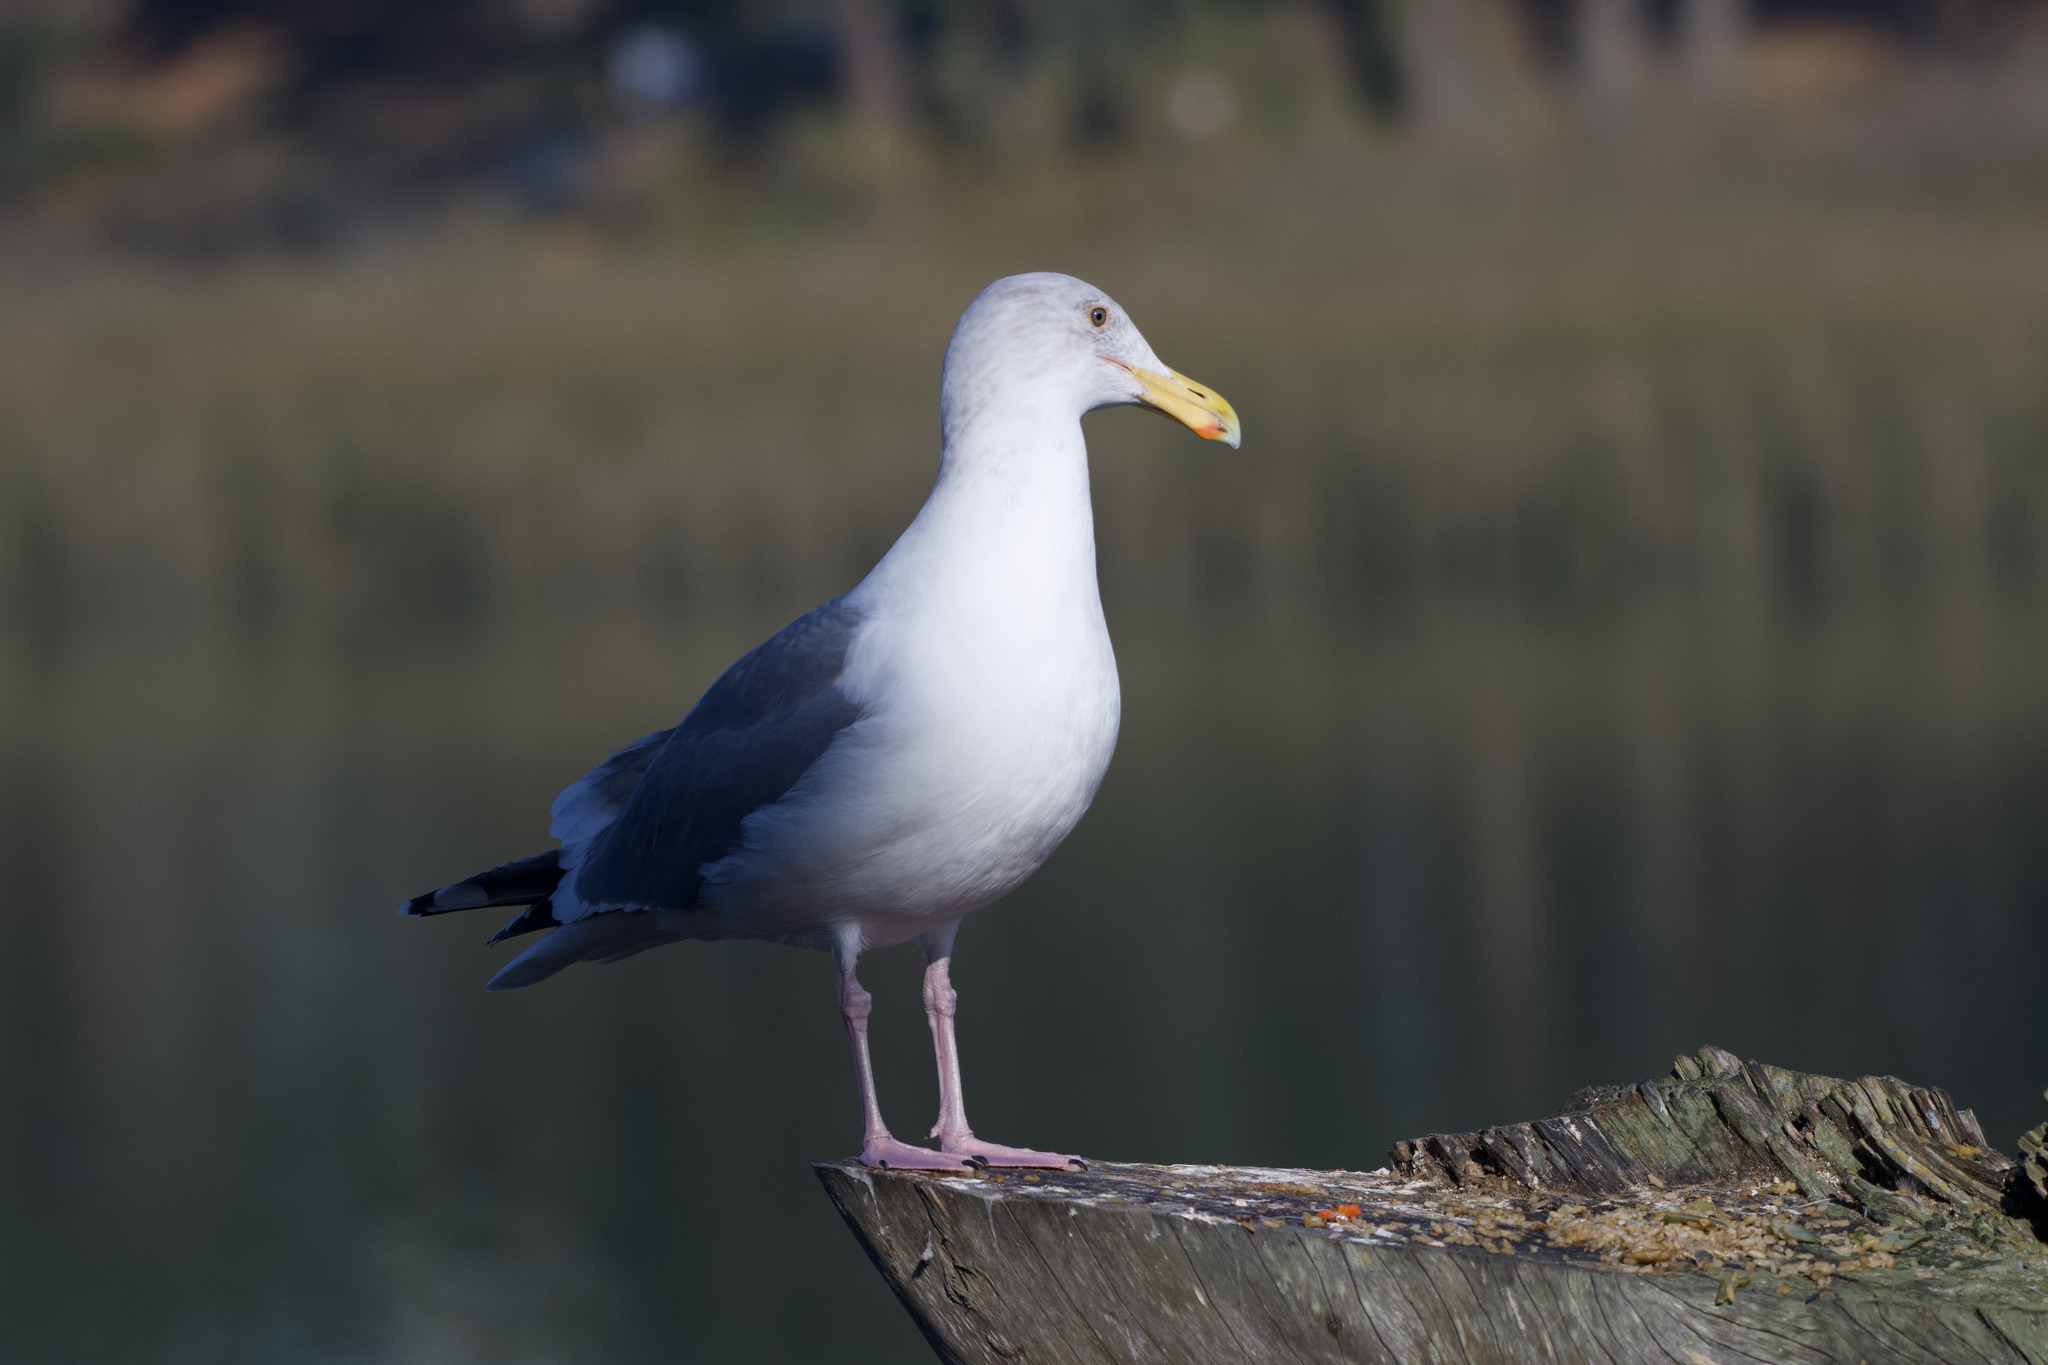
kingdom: Animalia
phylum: Chordata
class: Aves
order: Charadriiformes
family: Laridae
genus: Larus
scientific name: Larus
